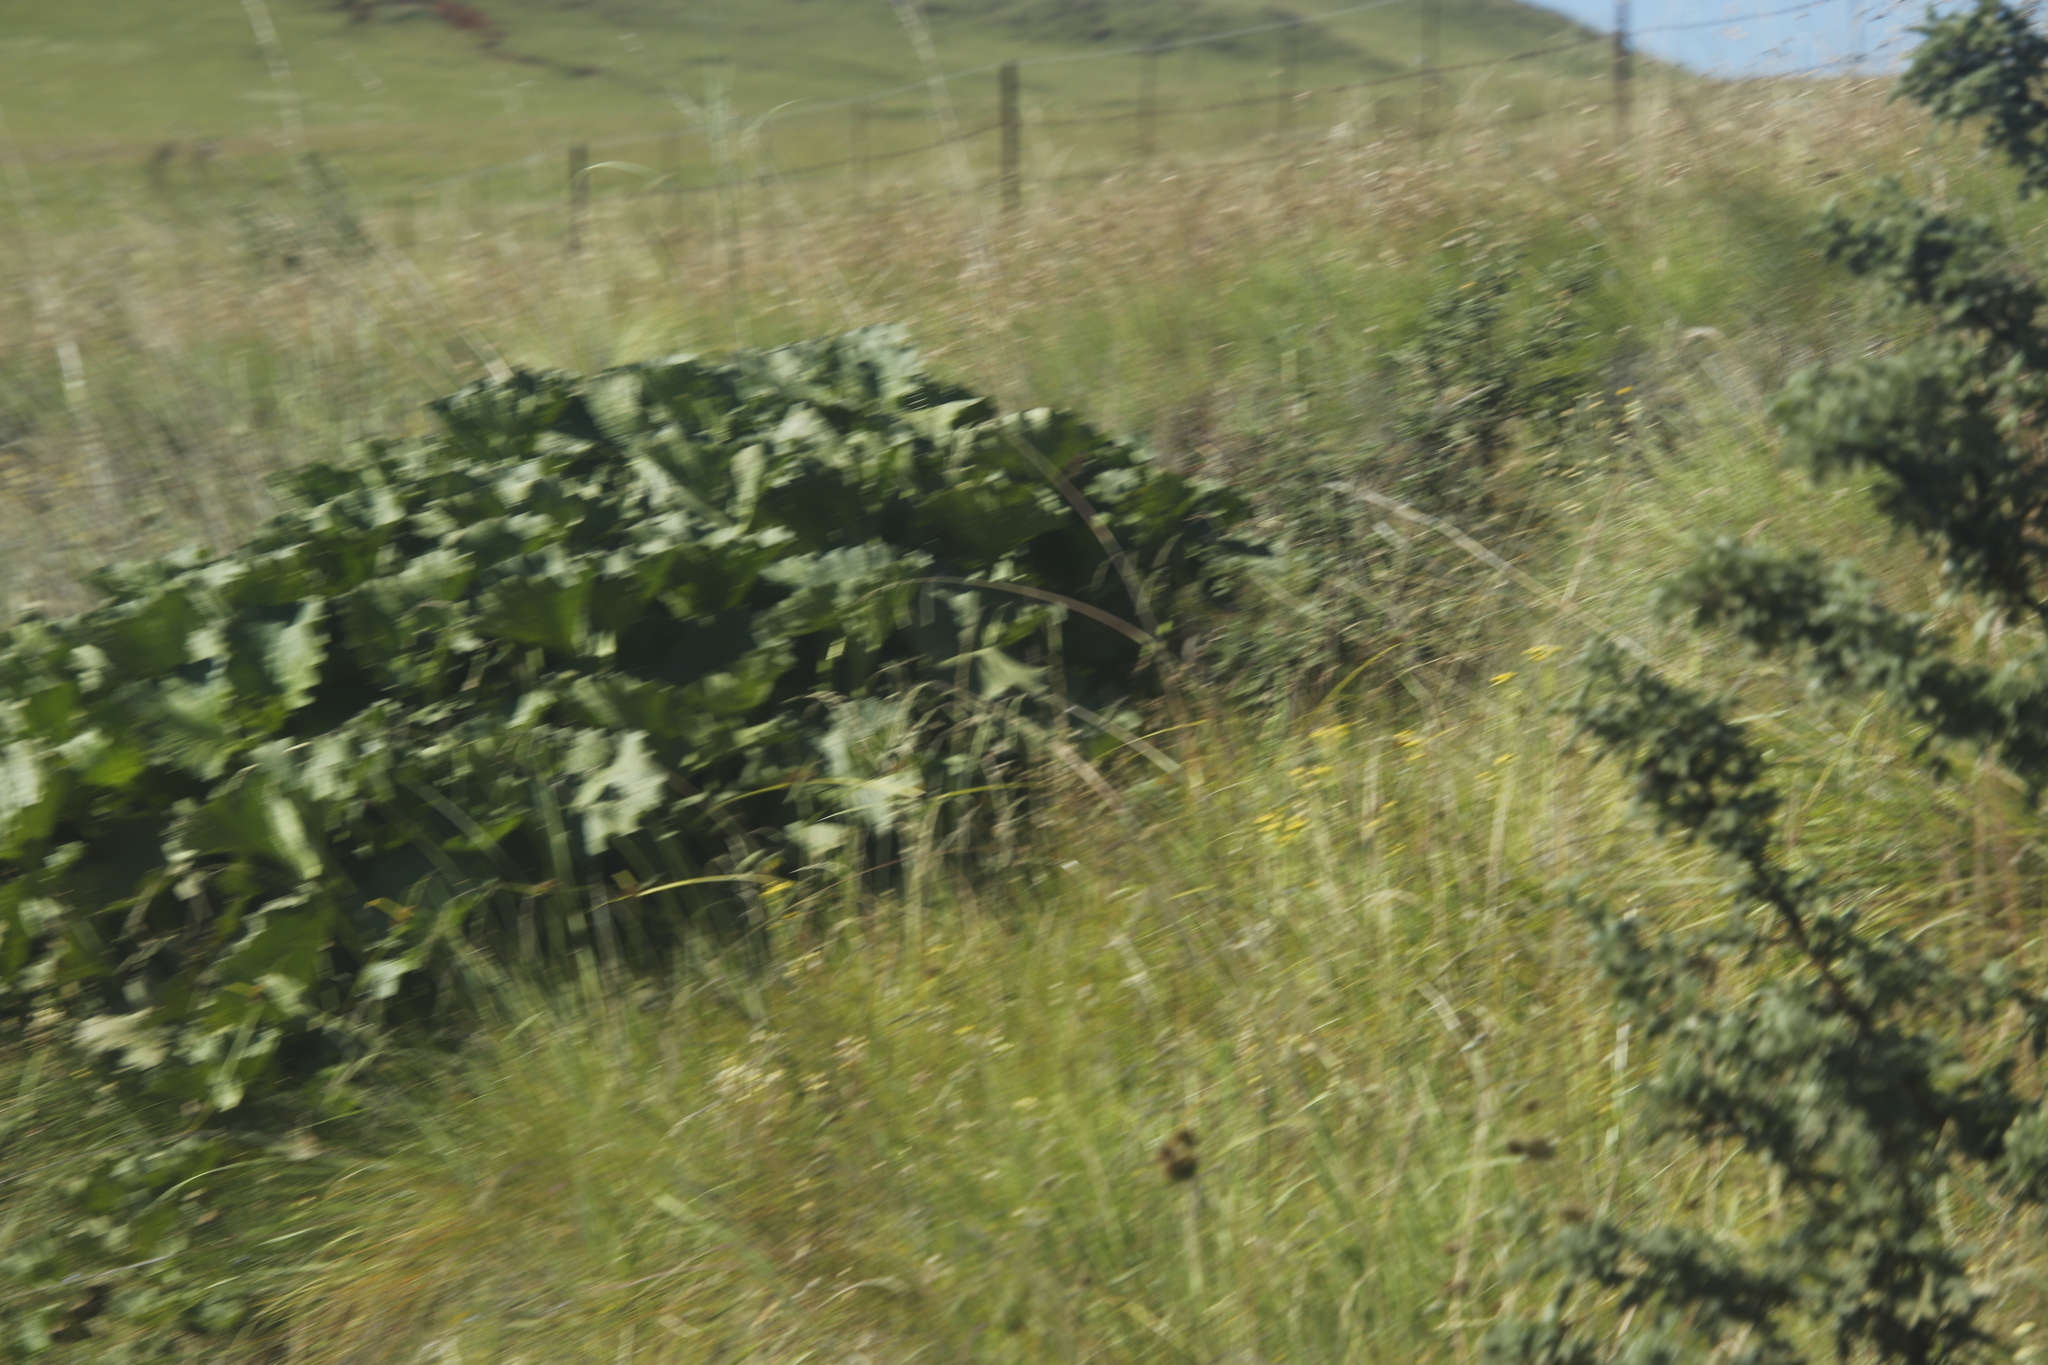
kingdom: Plantae
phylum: Tracheophyta
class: Magnoliopsida
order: Gunnerales
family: Gunneraceae
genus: Gunnera
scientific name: Gunnera perpensa
